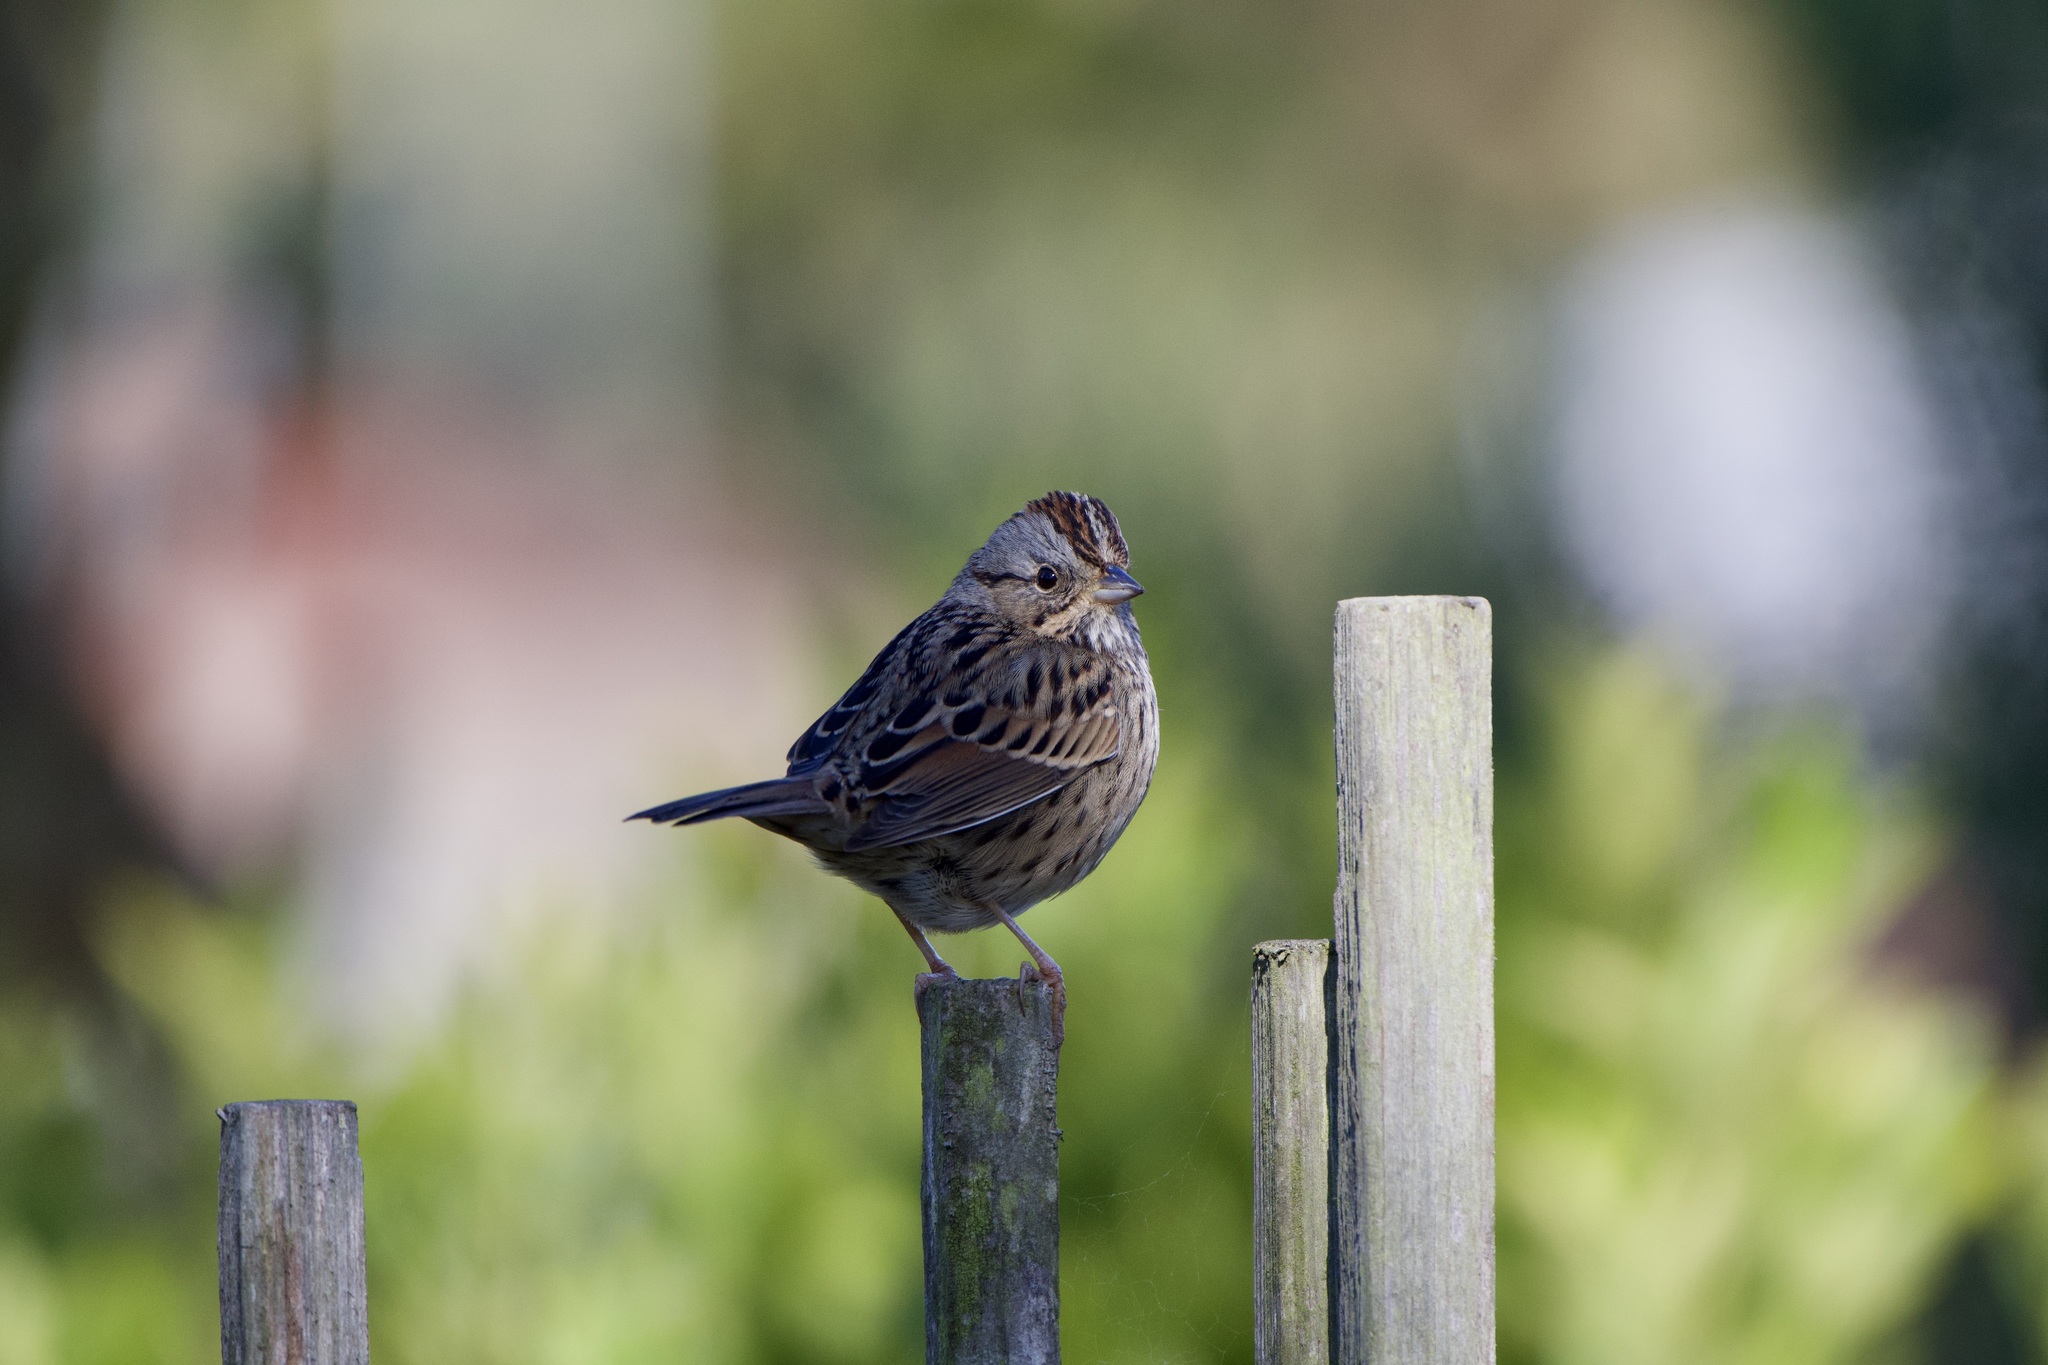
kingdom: Animalia
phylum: Chordata
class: Aves
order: Passeriformes
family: Passerellidae
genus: Melospiza
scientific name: Melospiza lincolnii
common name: Lincoln's sparrow
